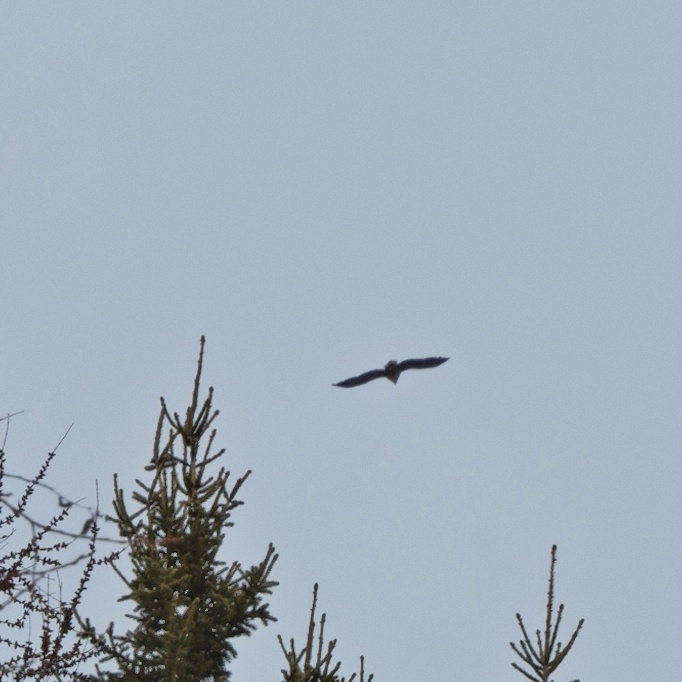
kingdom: Animalia
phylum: Chordata
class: Aves
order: Accipitriformes
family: Accipitridae
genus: Haliaeetus
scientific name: Haliaeetus albicilla
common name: White-tailed eagle
